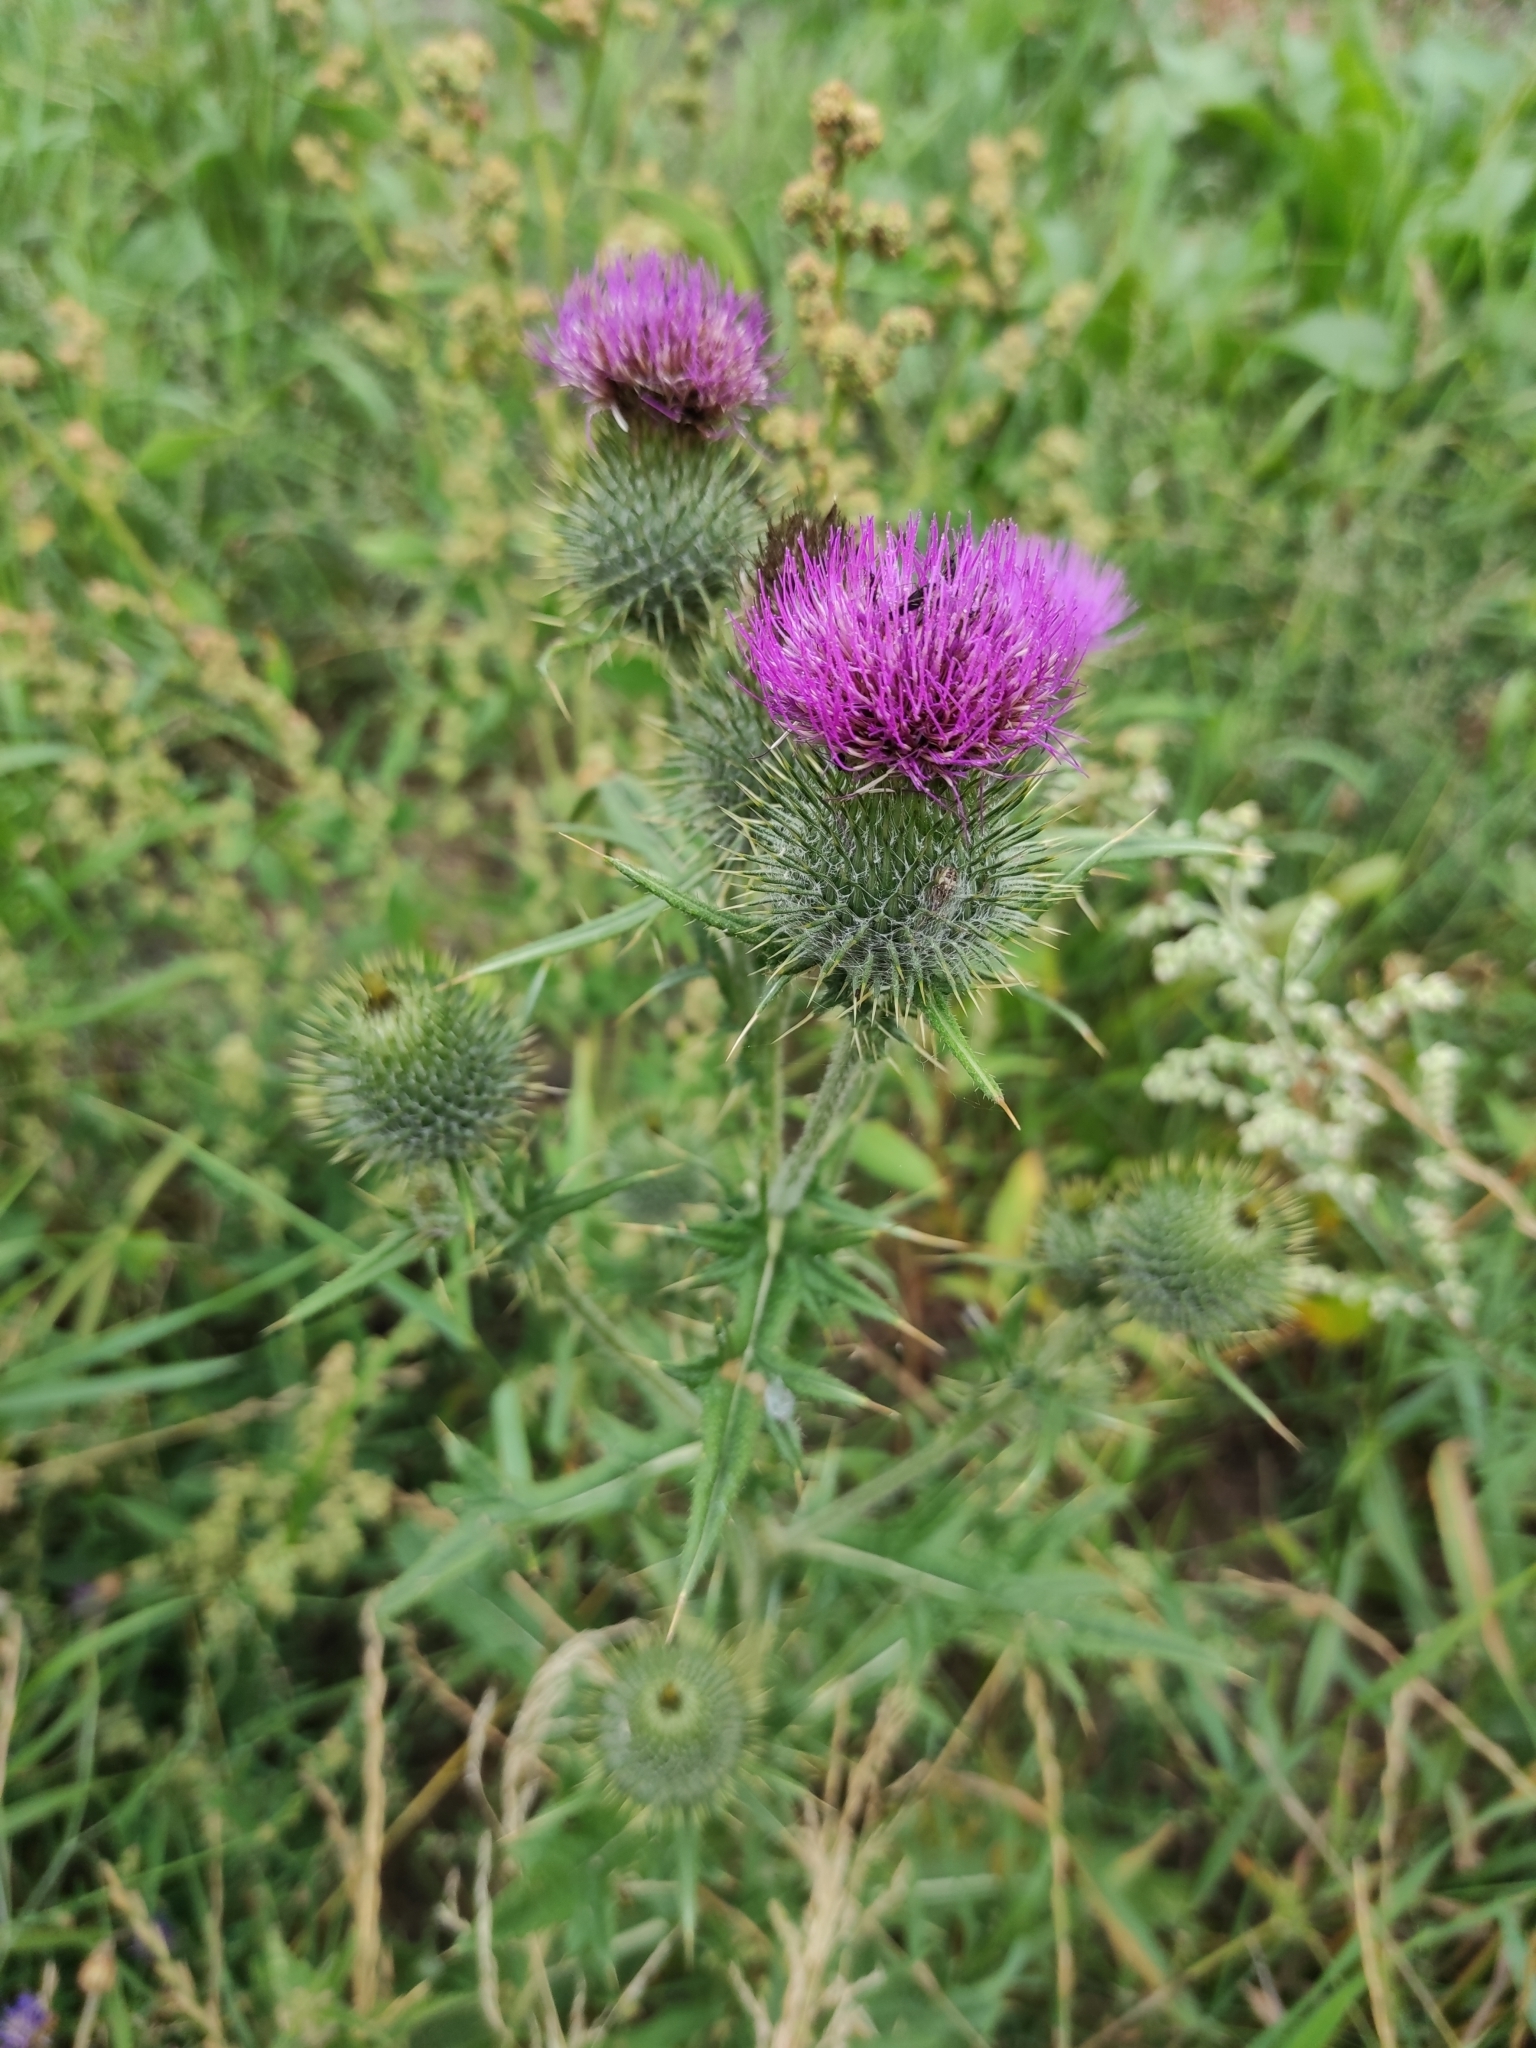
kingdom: Plantae
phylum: Tracheophyta
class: Magnoliopsida
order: Asterales
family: Asteraceae
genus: Cirsium
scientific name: Cirsium vulgare
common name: Bull thistle
